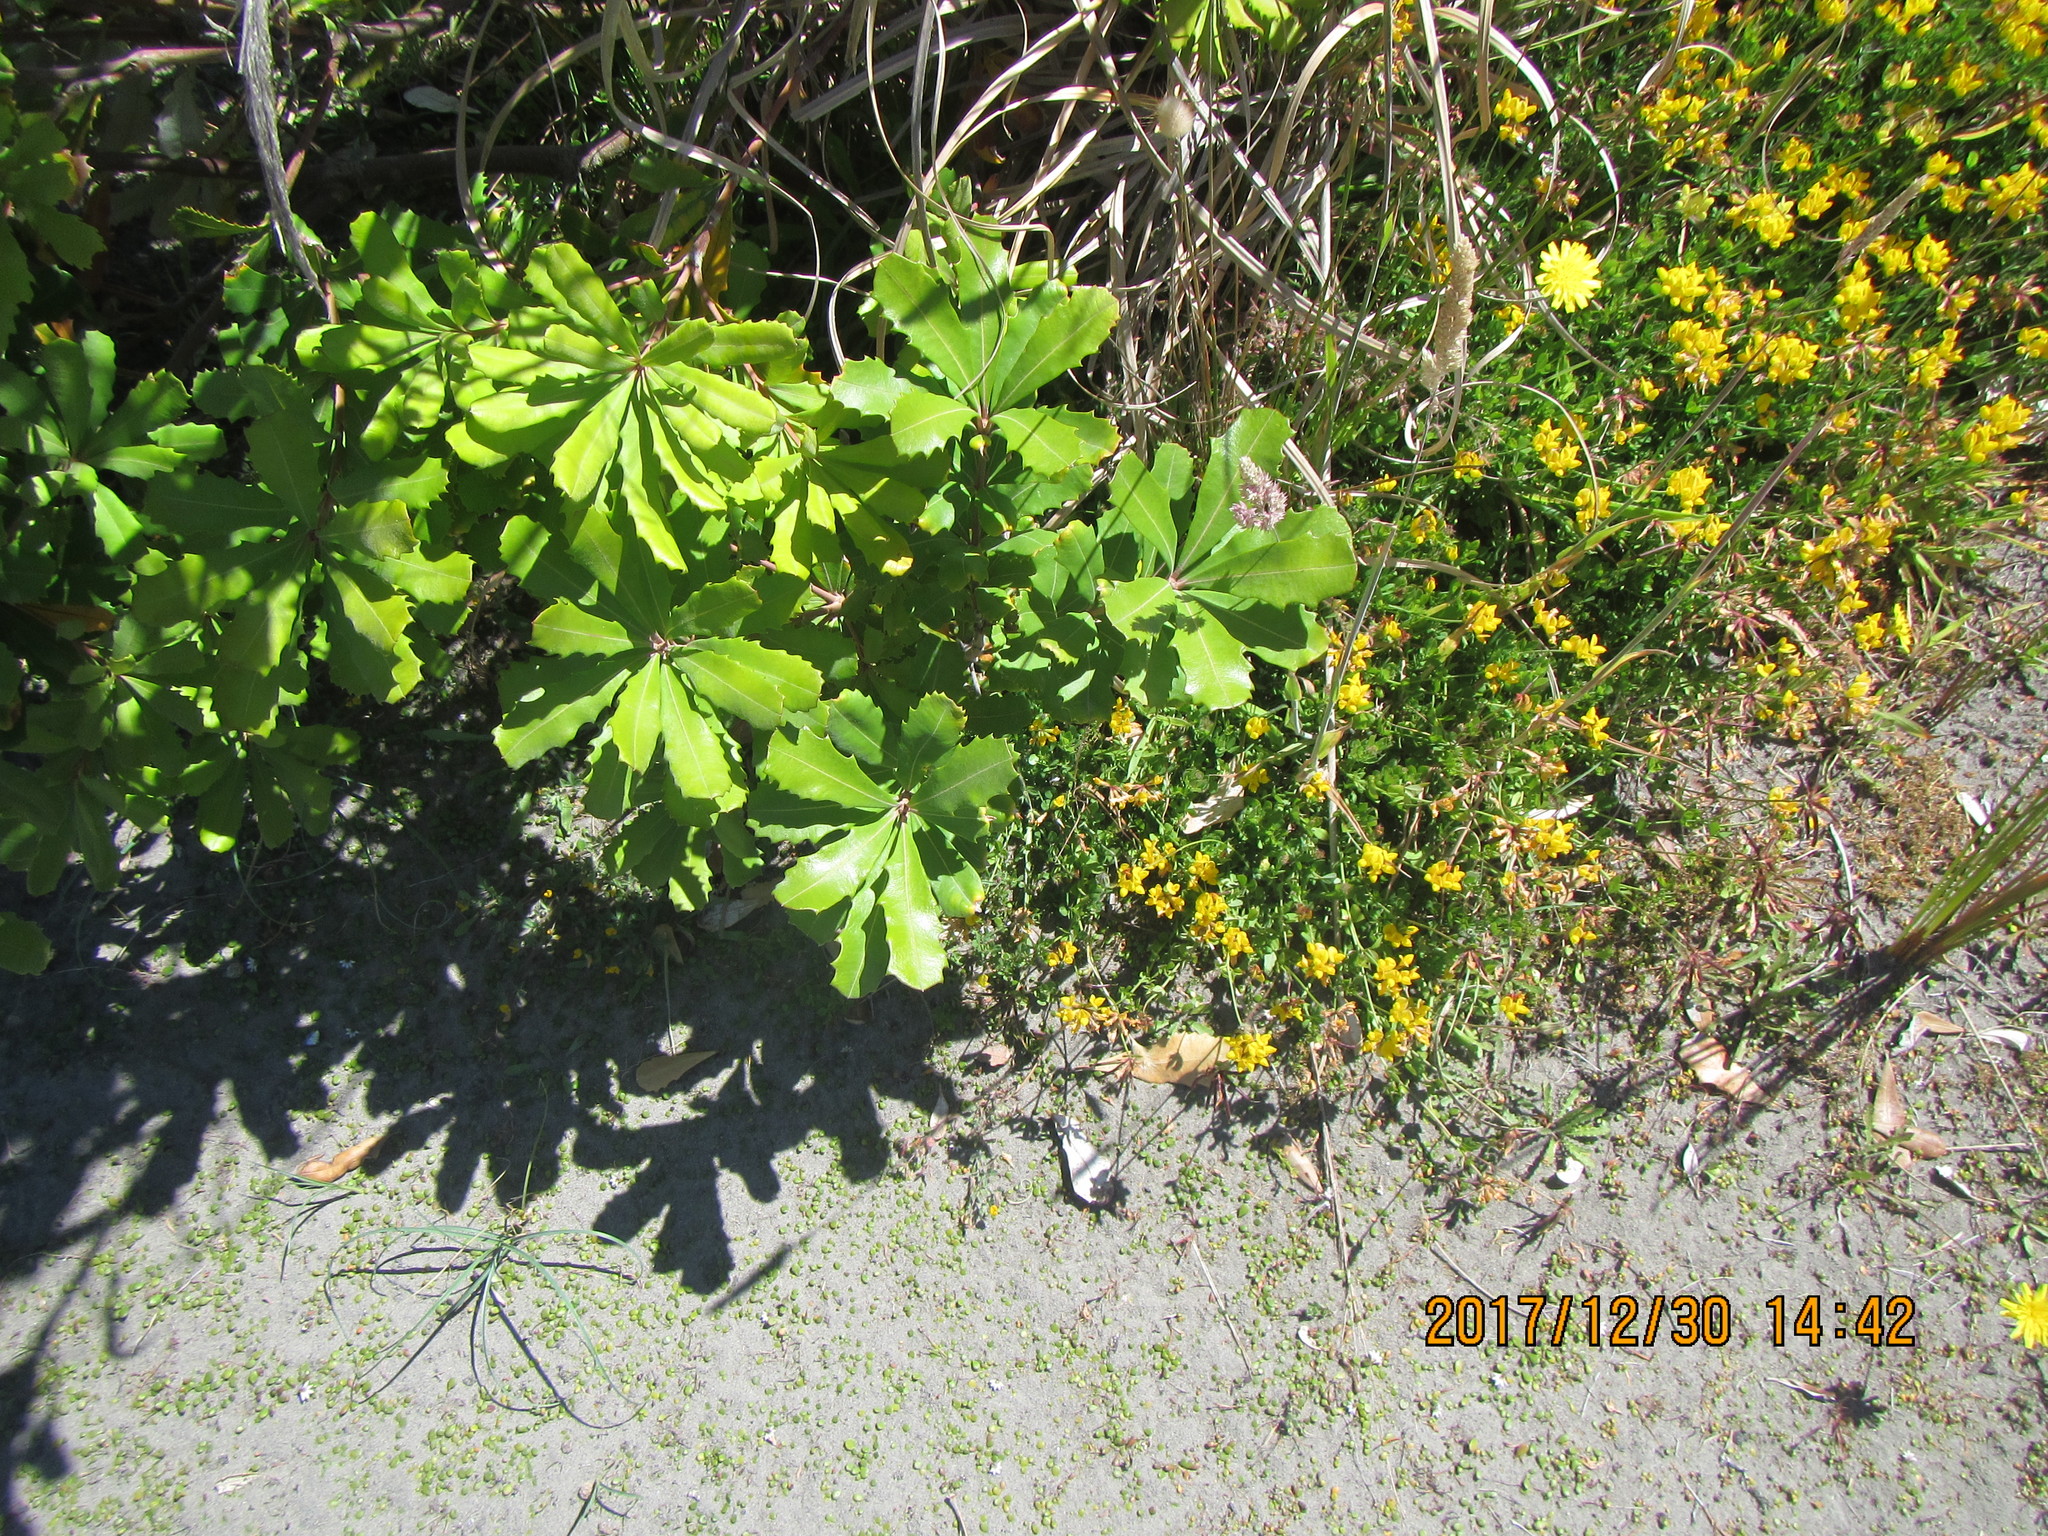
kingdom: Plantae
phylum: Tracheophyta
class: Magnoliopsida
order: Proteales
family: Proteaceae
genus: Banksia
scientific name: Banksia integrifolia
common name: White-honeysuckle
